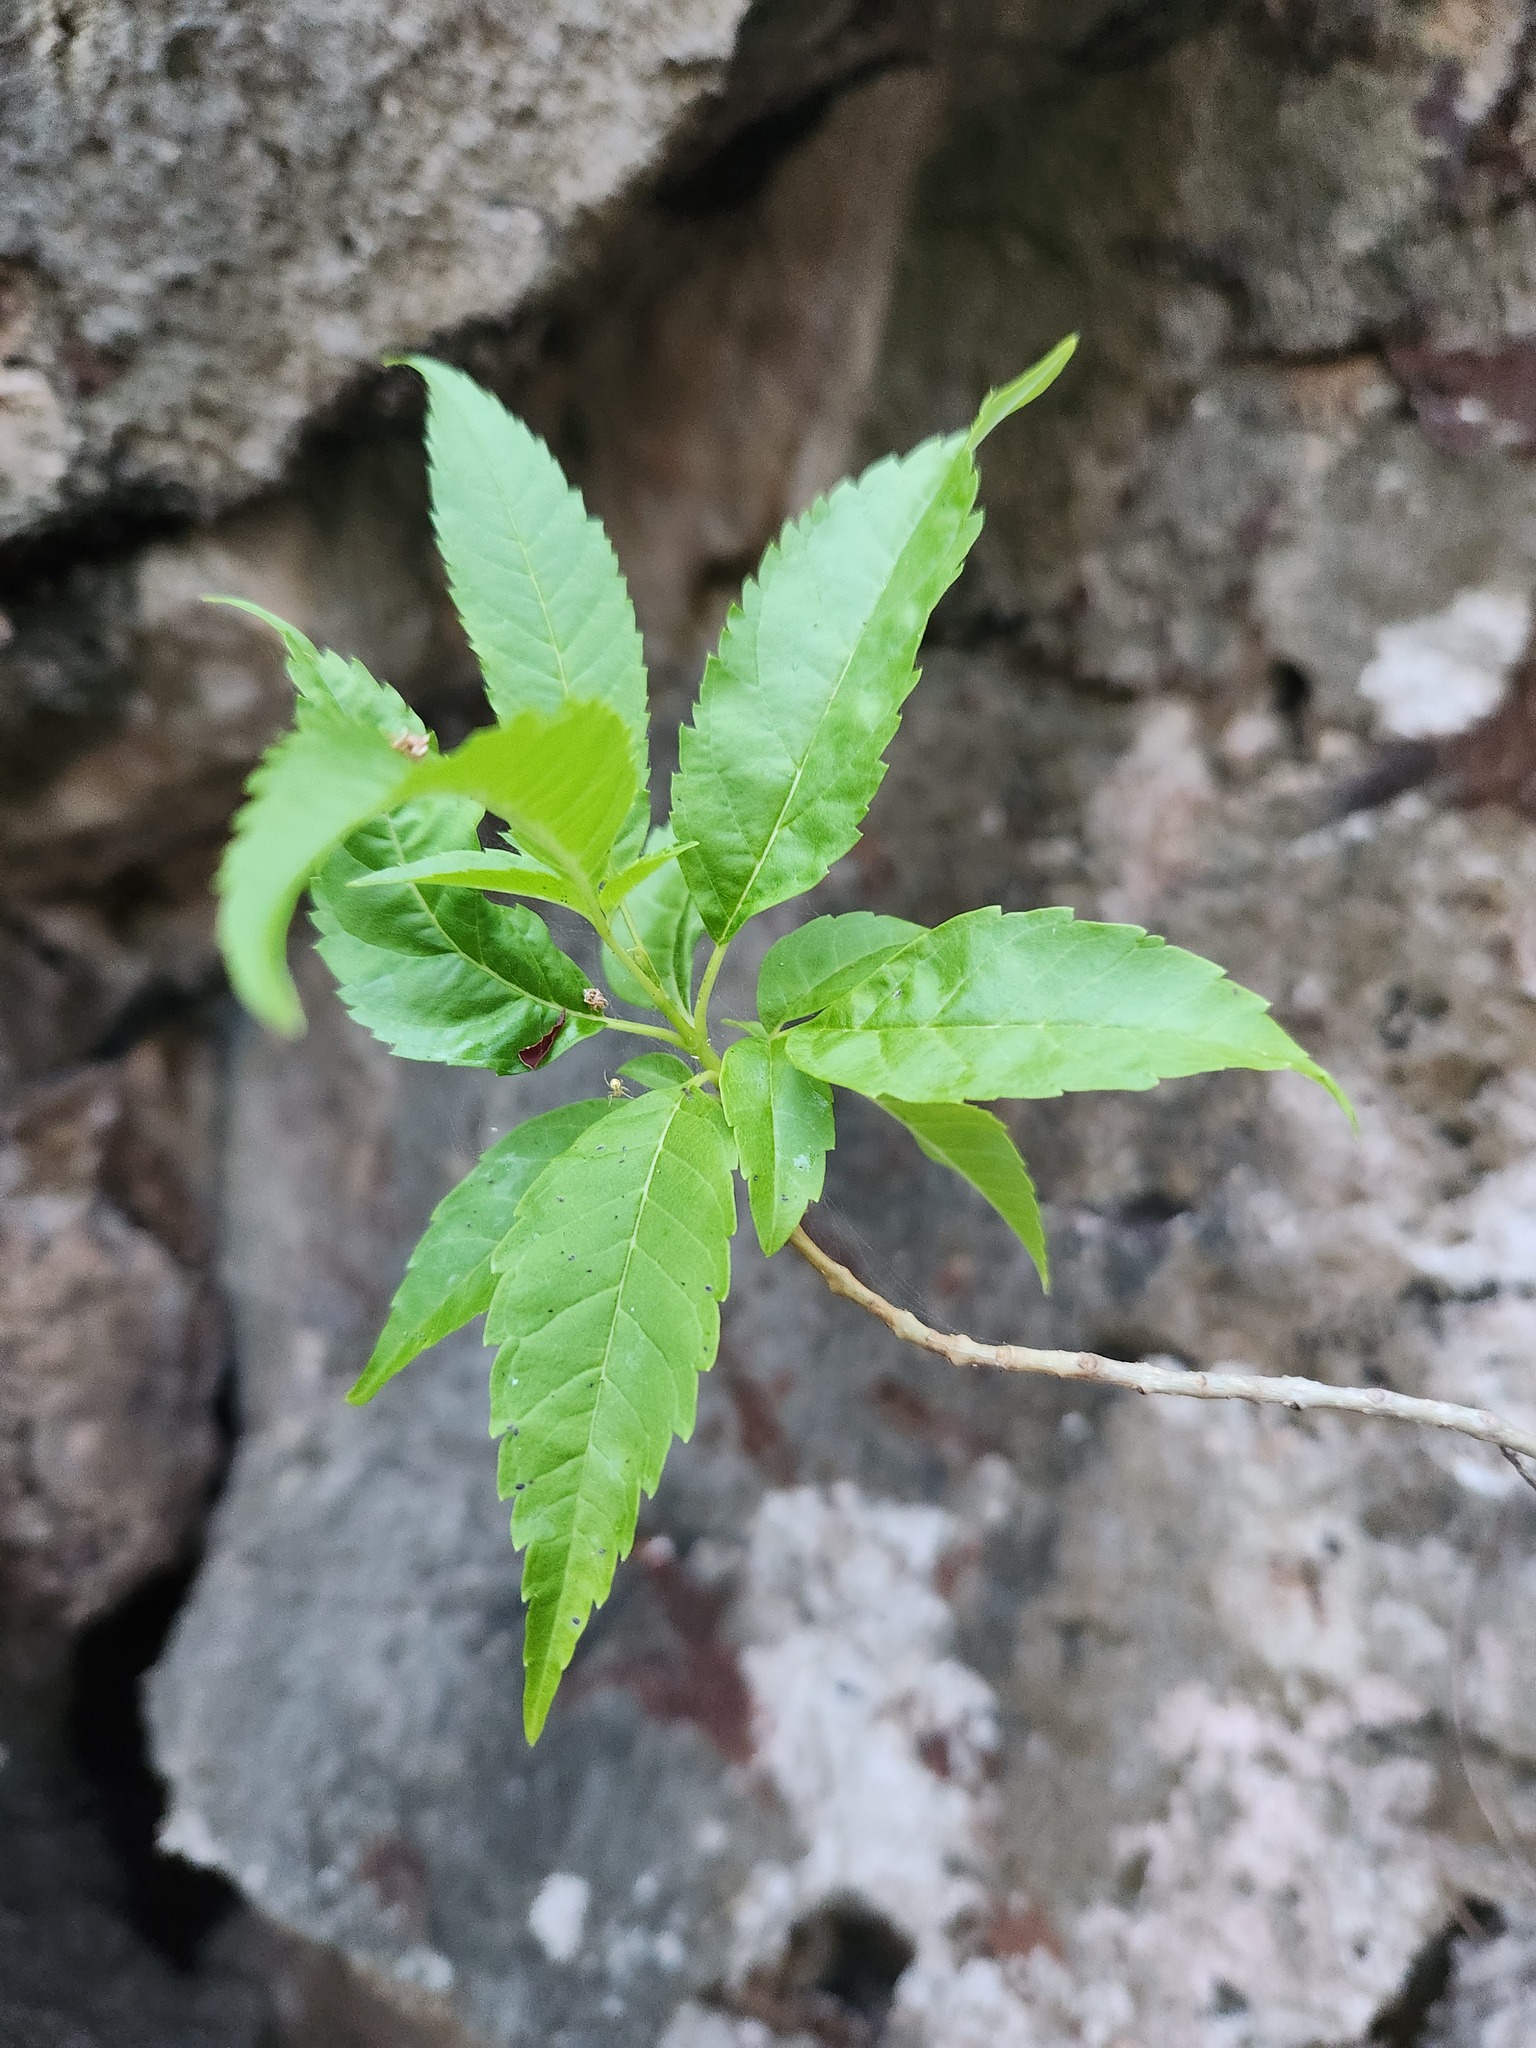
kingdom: Plantae
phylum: Tracheophyta
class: Magnoliopsida
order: Lamiales
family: Bignoniaceae
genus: Tecoma
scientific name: Tecoma stans
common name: Yellow trumpetbush
